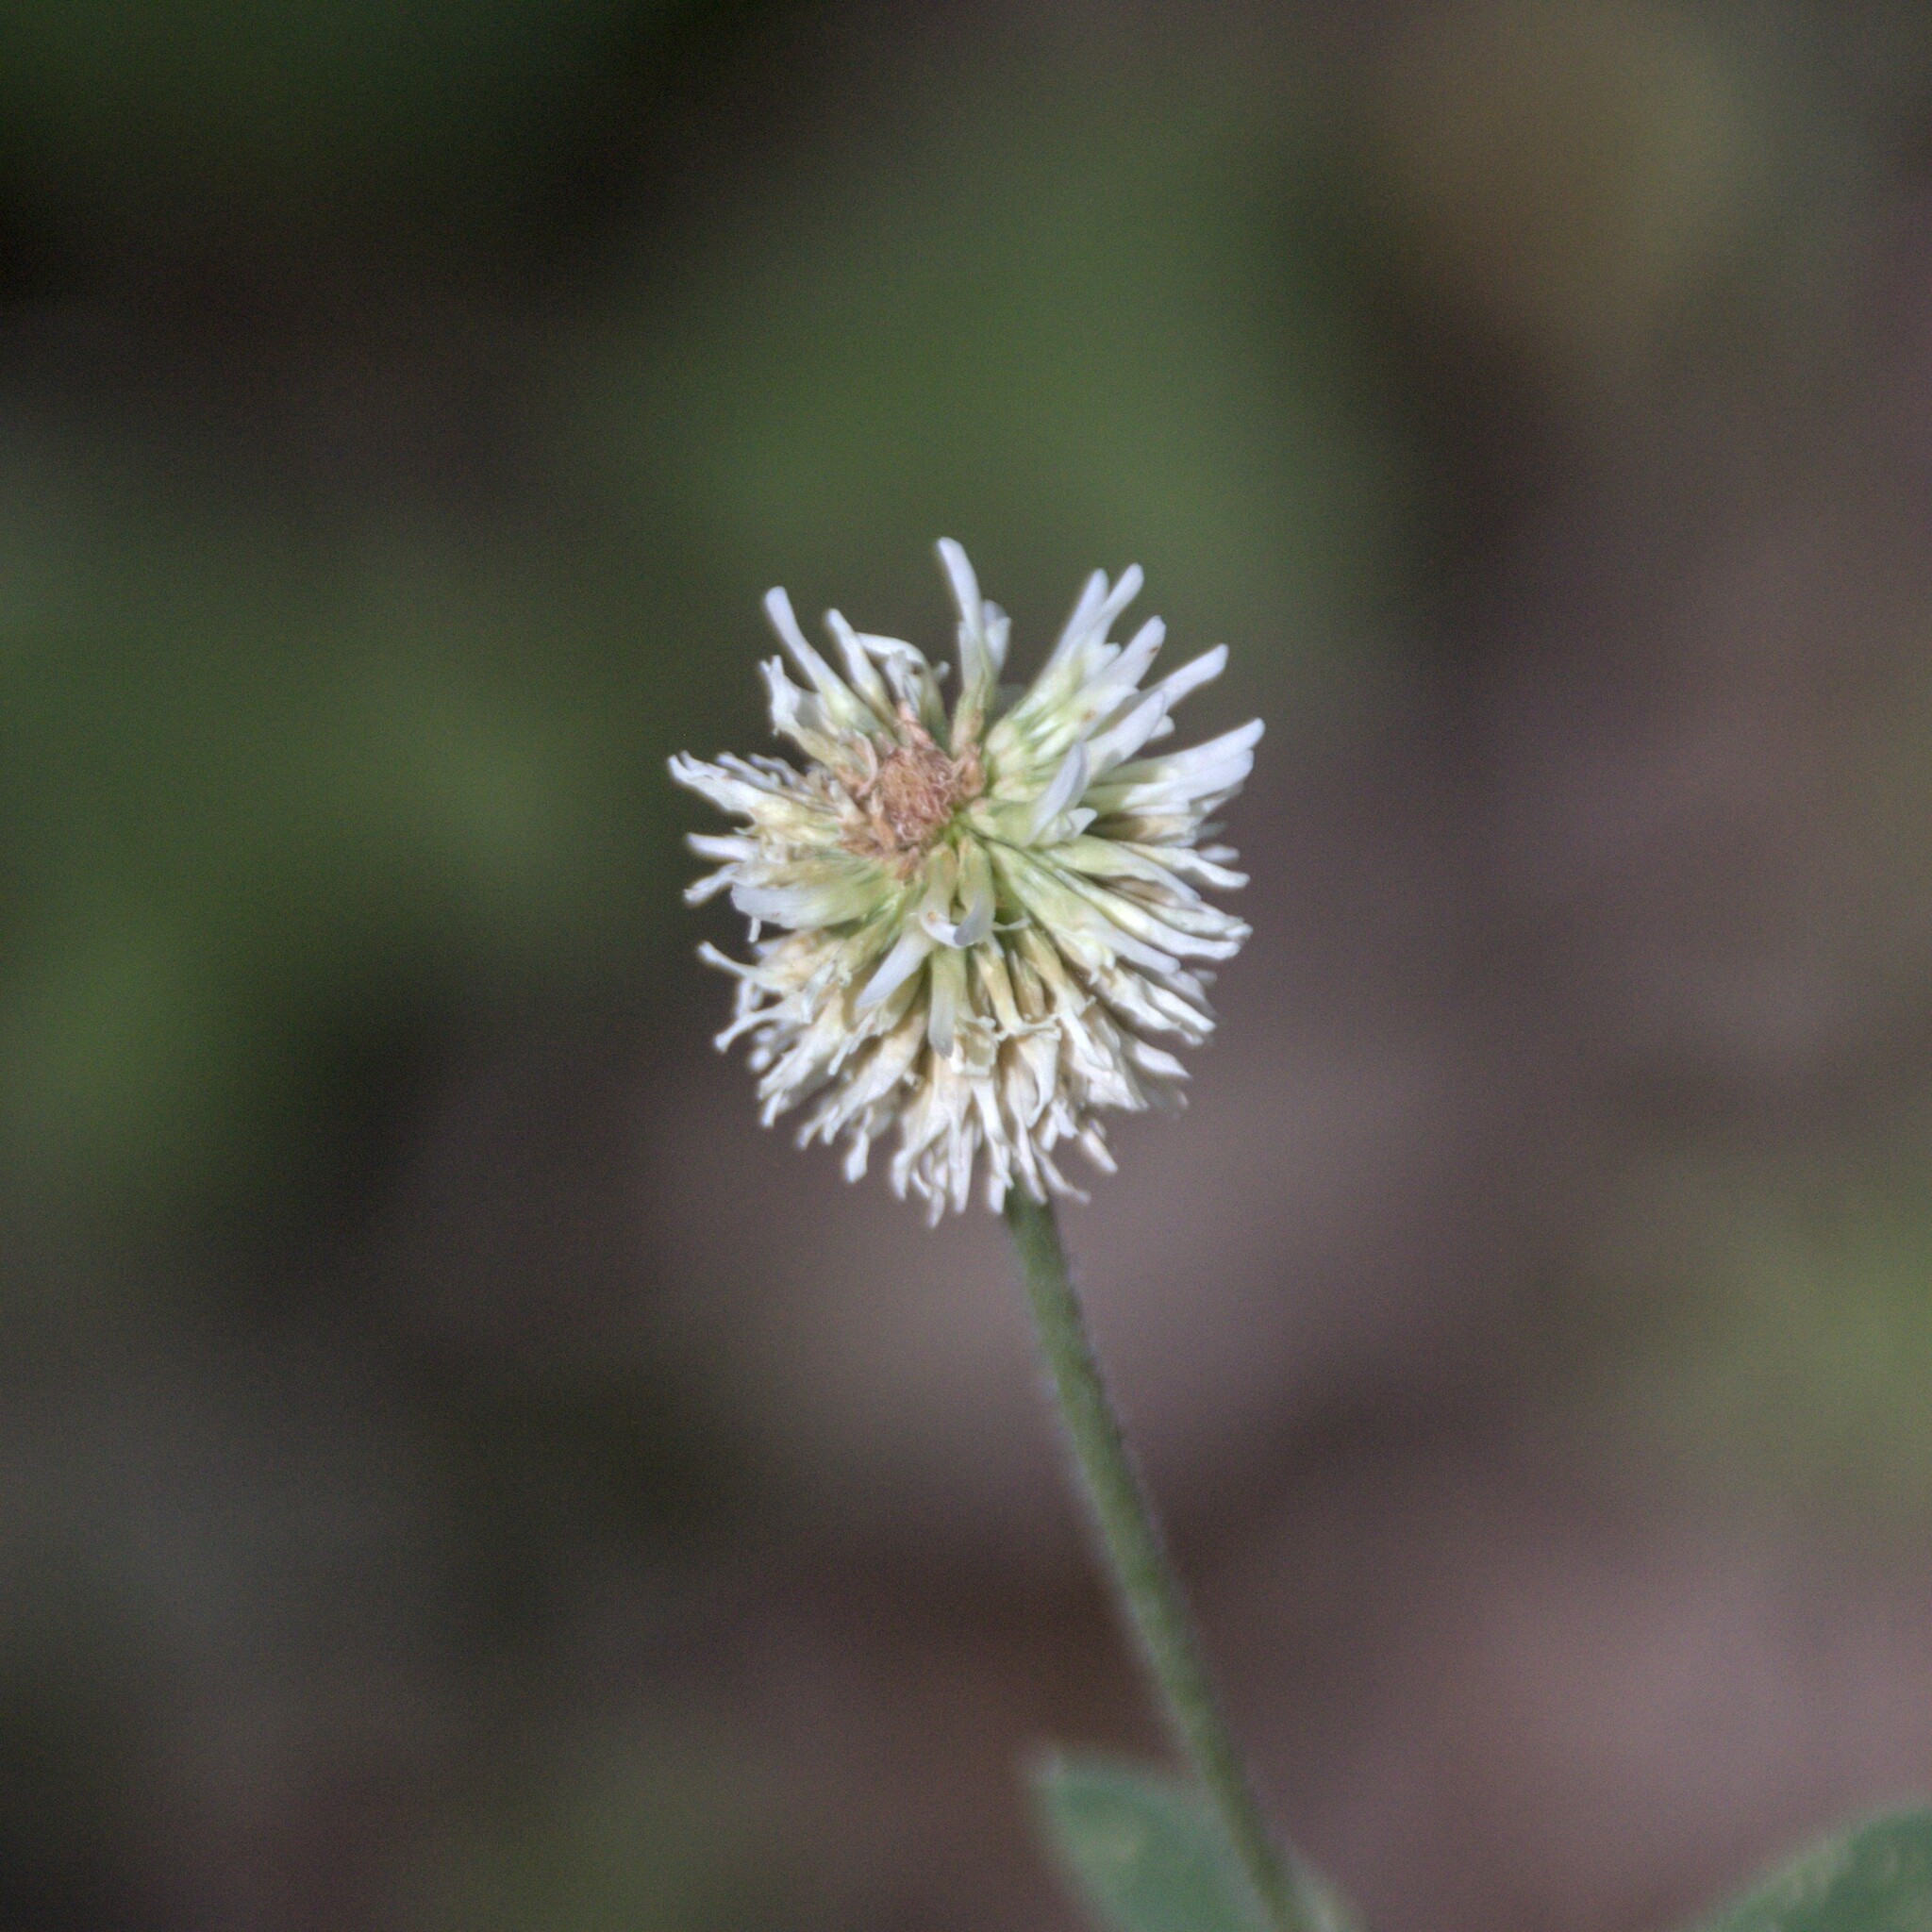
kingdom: Plantae
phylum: Tracheophyta
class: Magnoliopsida
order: Fabales
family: Fabaceae
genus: Trifolium
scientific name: Trifolium montanum
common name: Mountain clover
